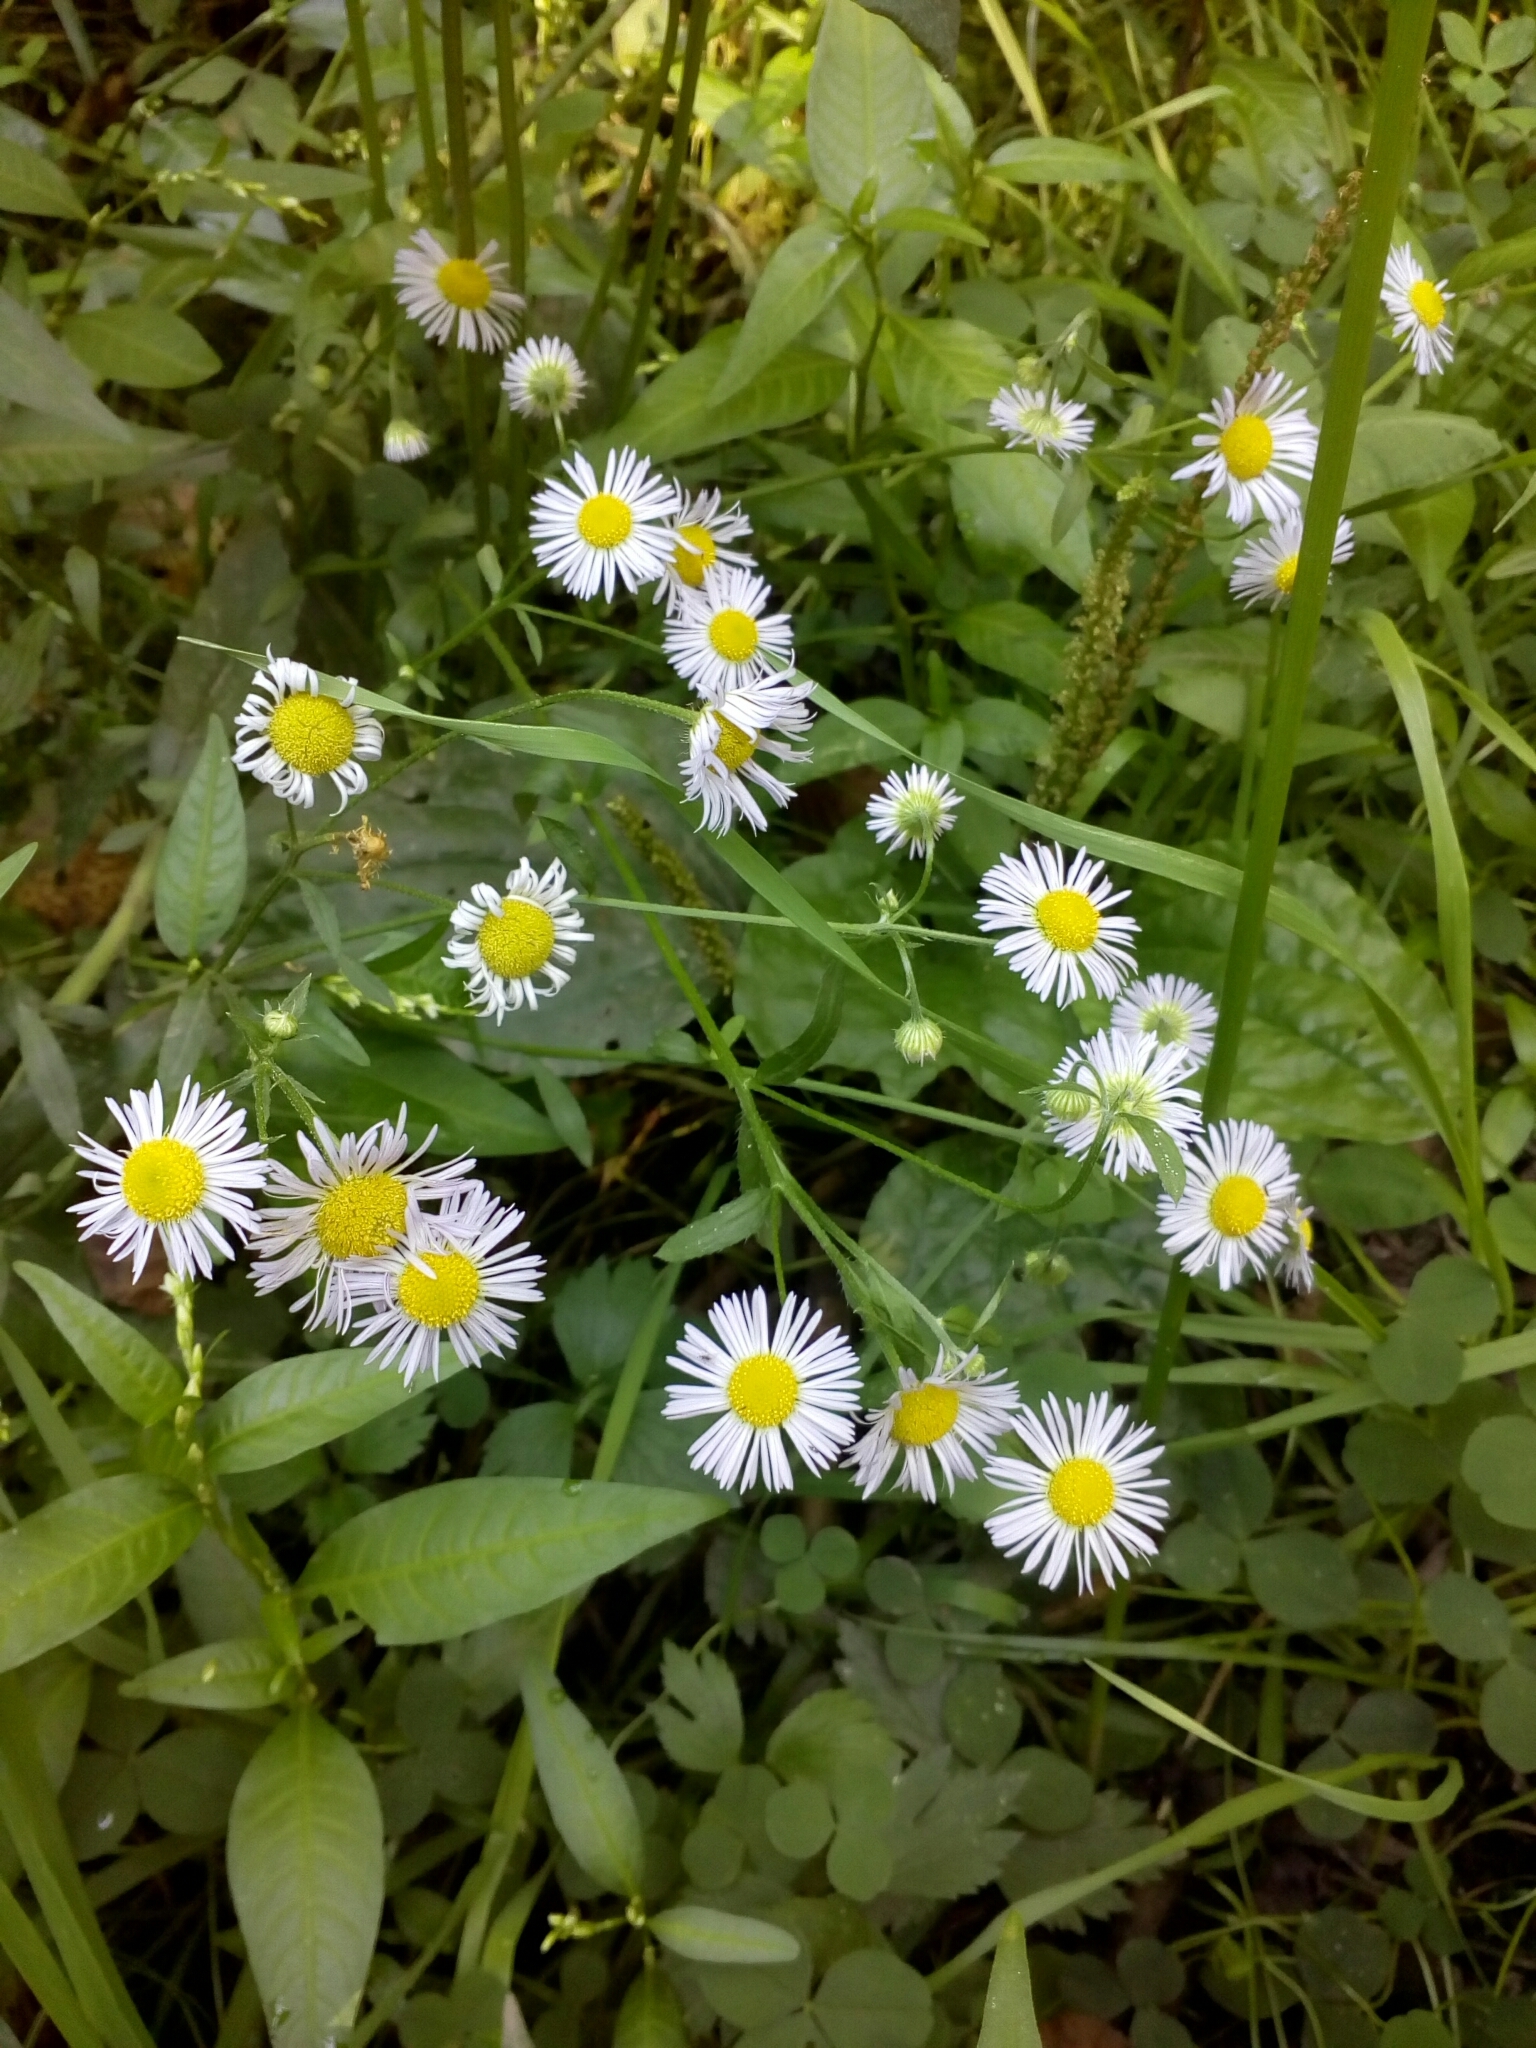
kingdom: Plantae
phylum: Tracheophyta
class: Magnoliopsida
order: Asterales
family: Asteraceae
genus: Erigeron
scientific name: Erigeron annuus
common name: Tall fleabane
